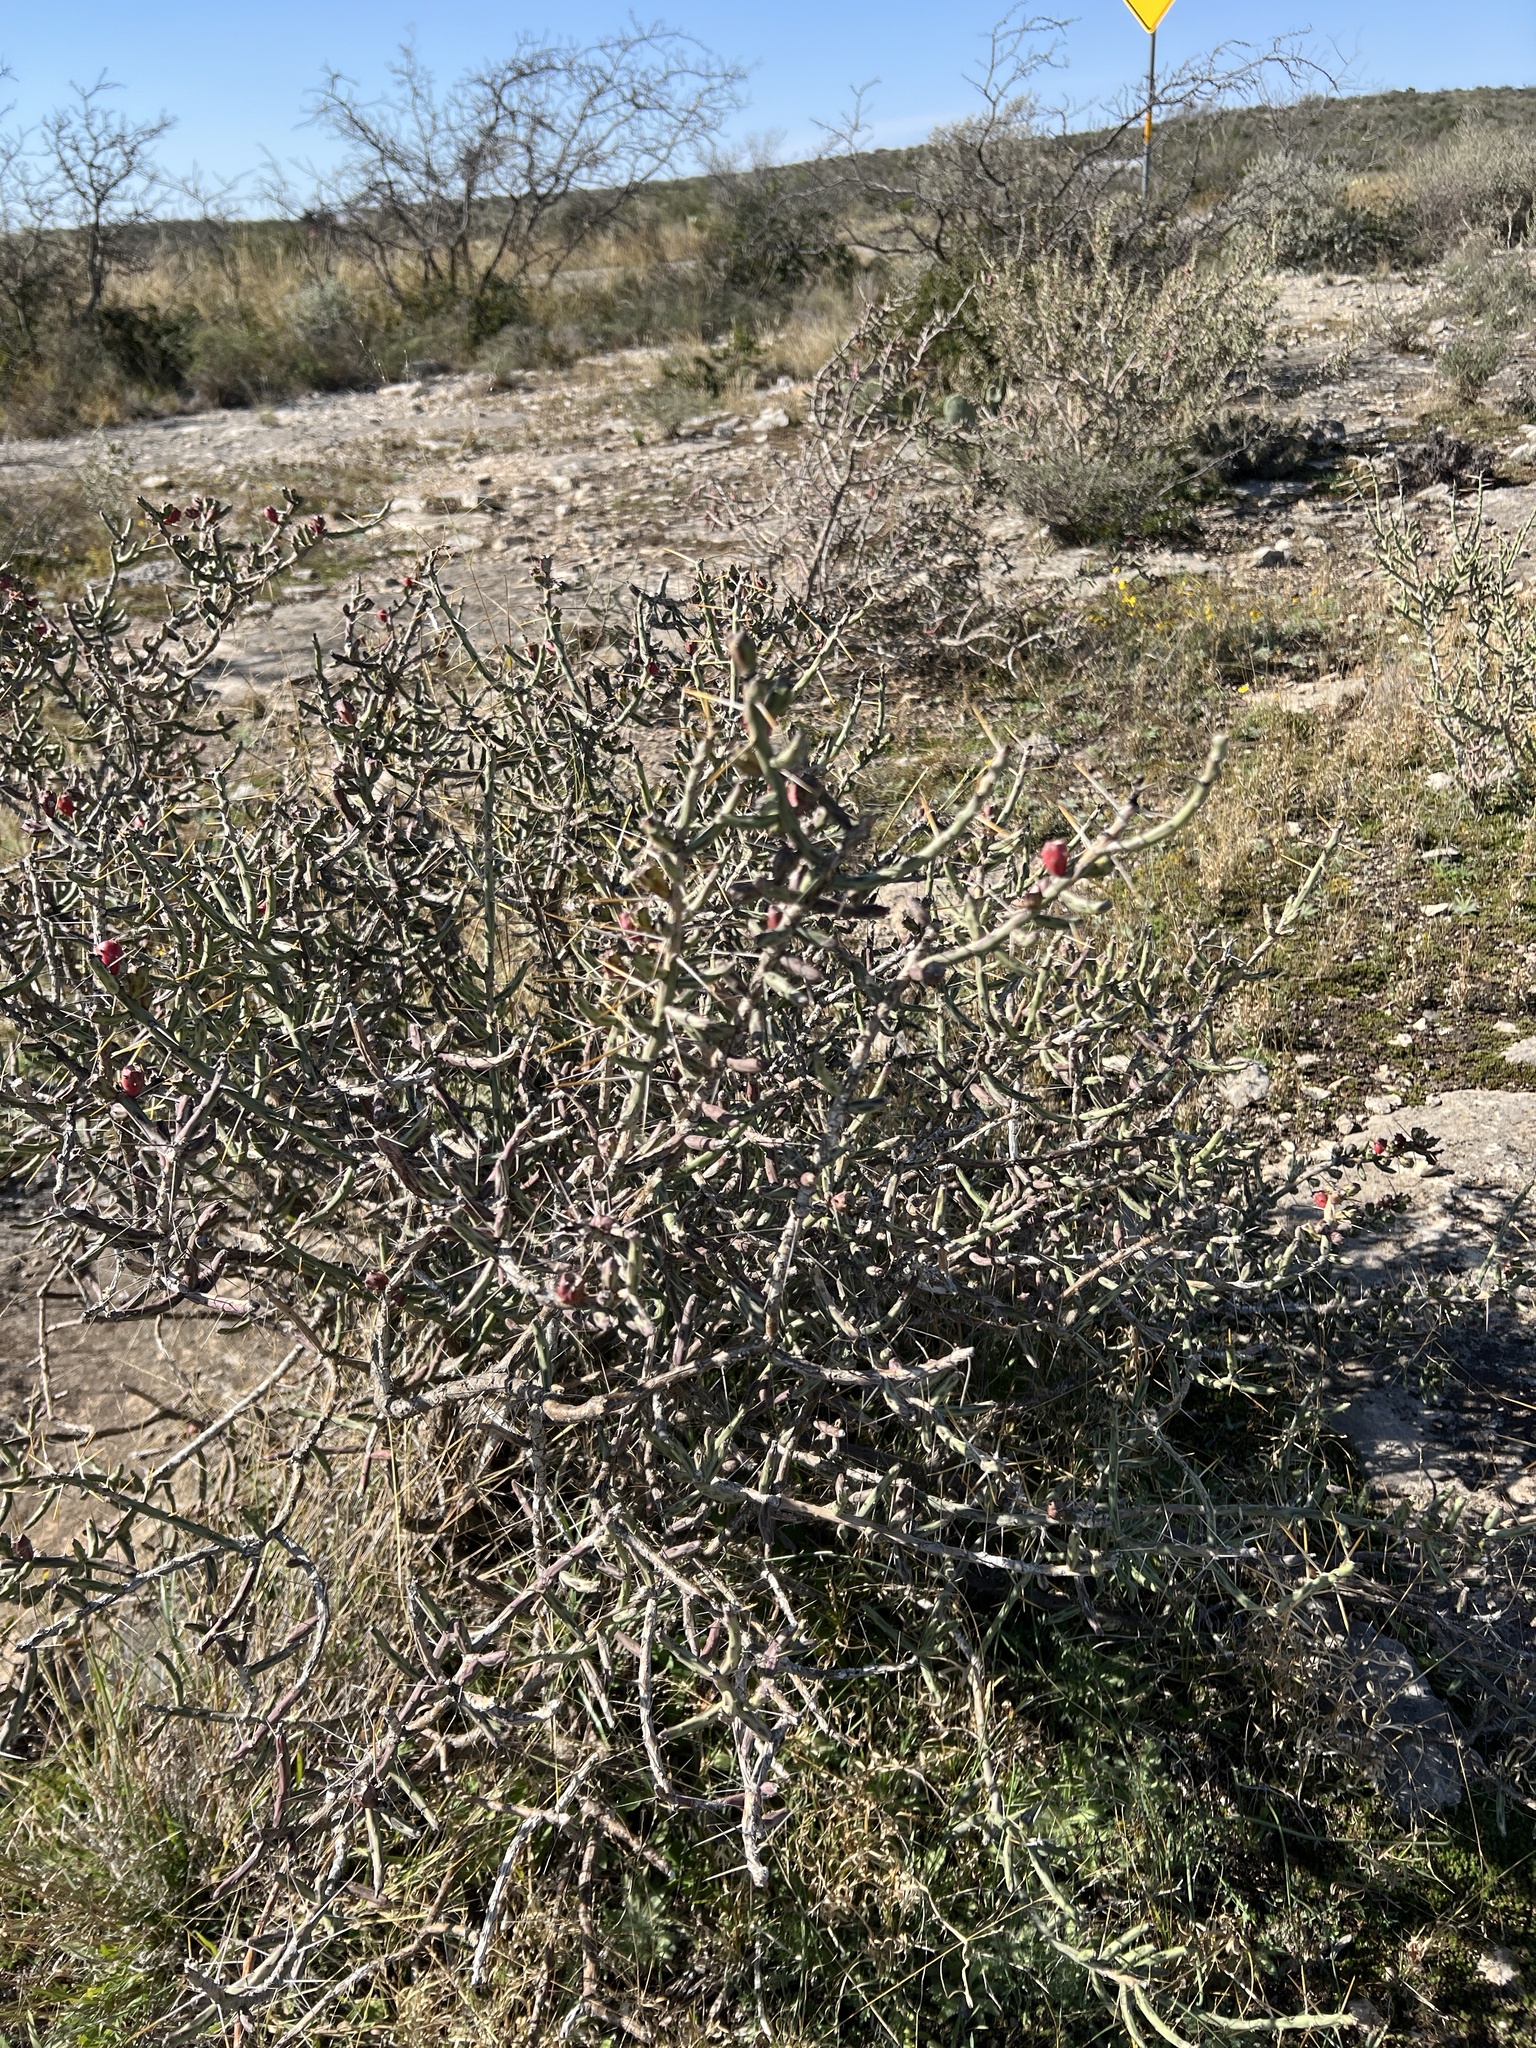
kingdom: Plantae
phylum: Tracheophyta
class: Magnoliopsida
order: Caryophyllales
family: Cactaceae
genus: Cylindropuntia
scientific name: Cylindropuntia leptocaulis
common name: Christmas cactus
